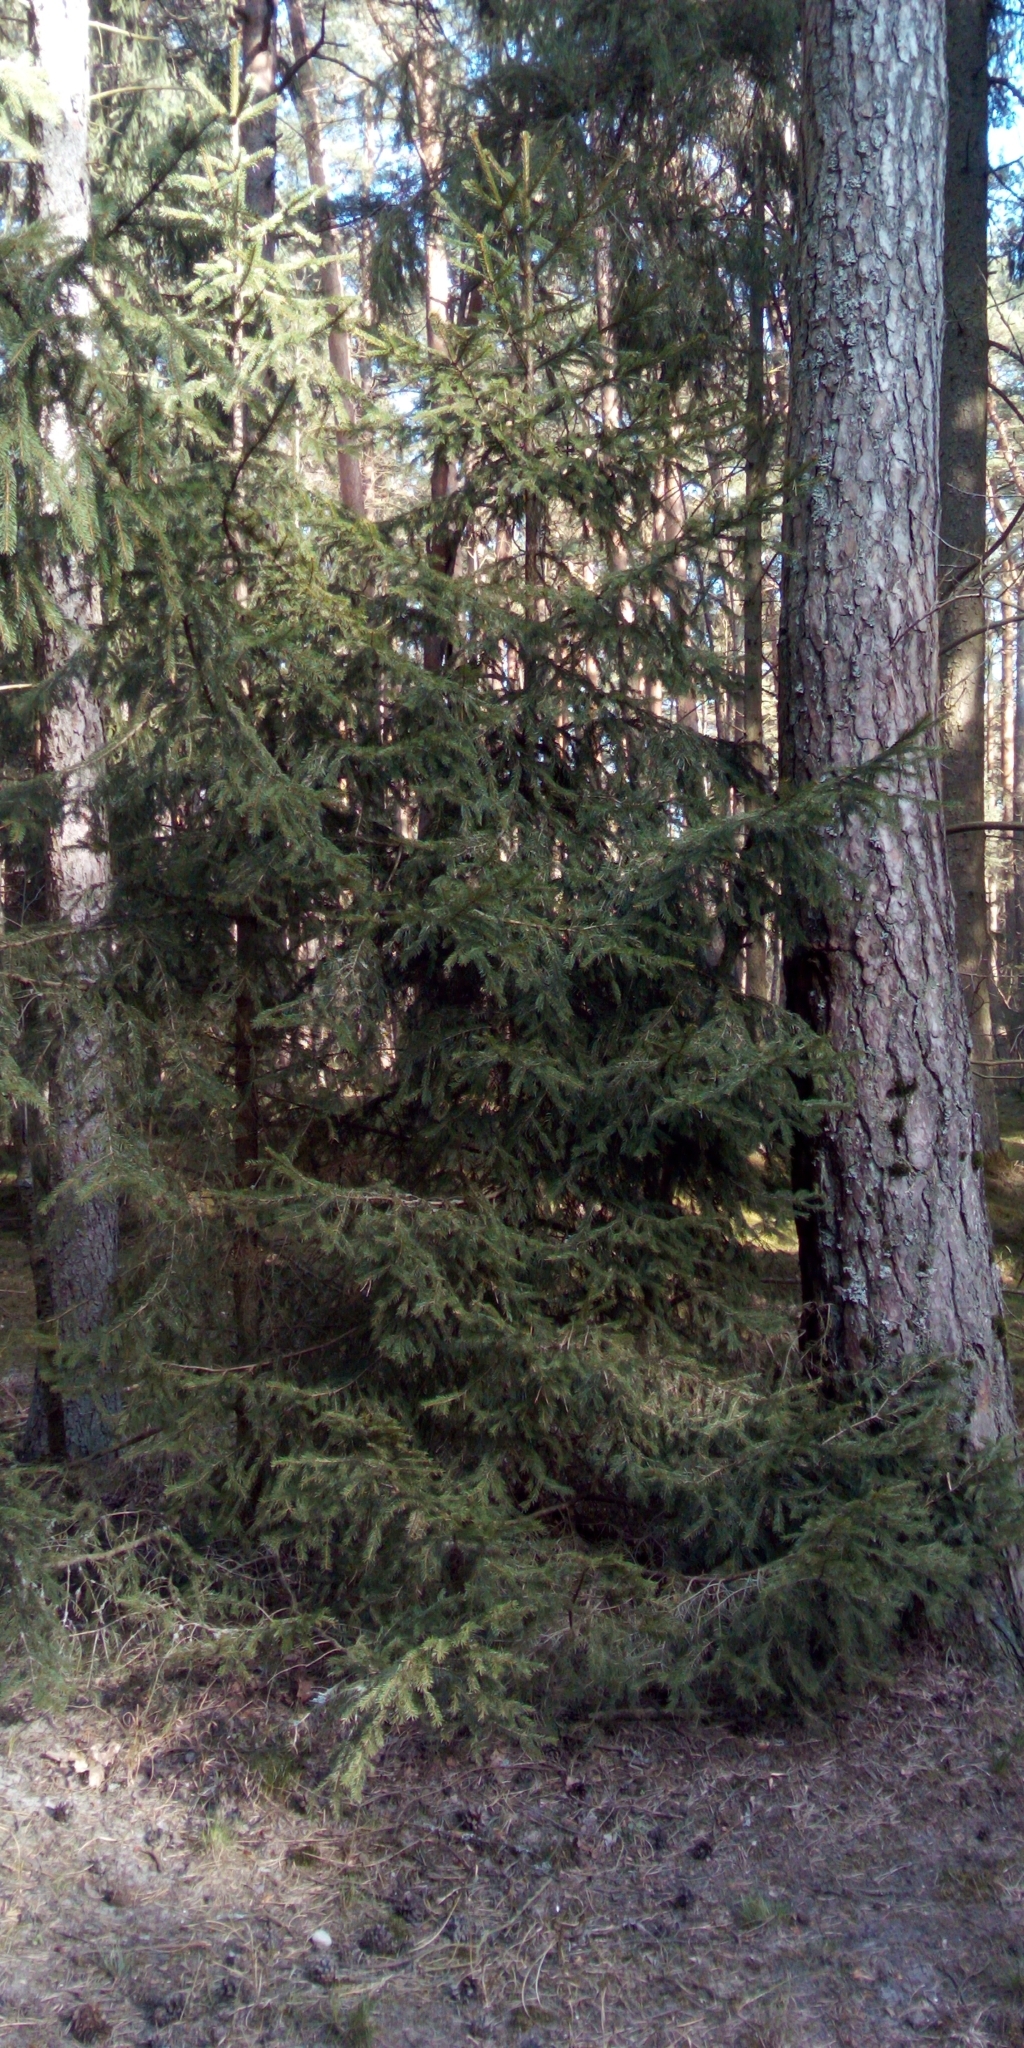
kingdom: Plantae
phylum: Tracheophyta
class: Pinopsida
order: Pinales
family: Pinaceae
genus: Picea
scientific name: Picea abies
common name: Norway spruce
